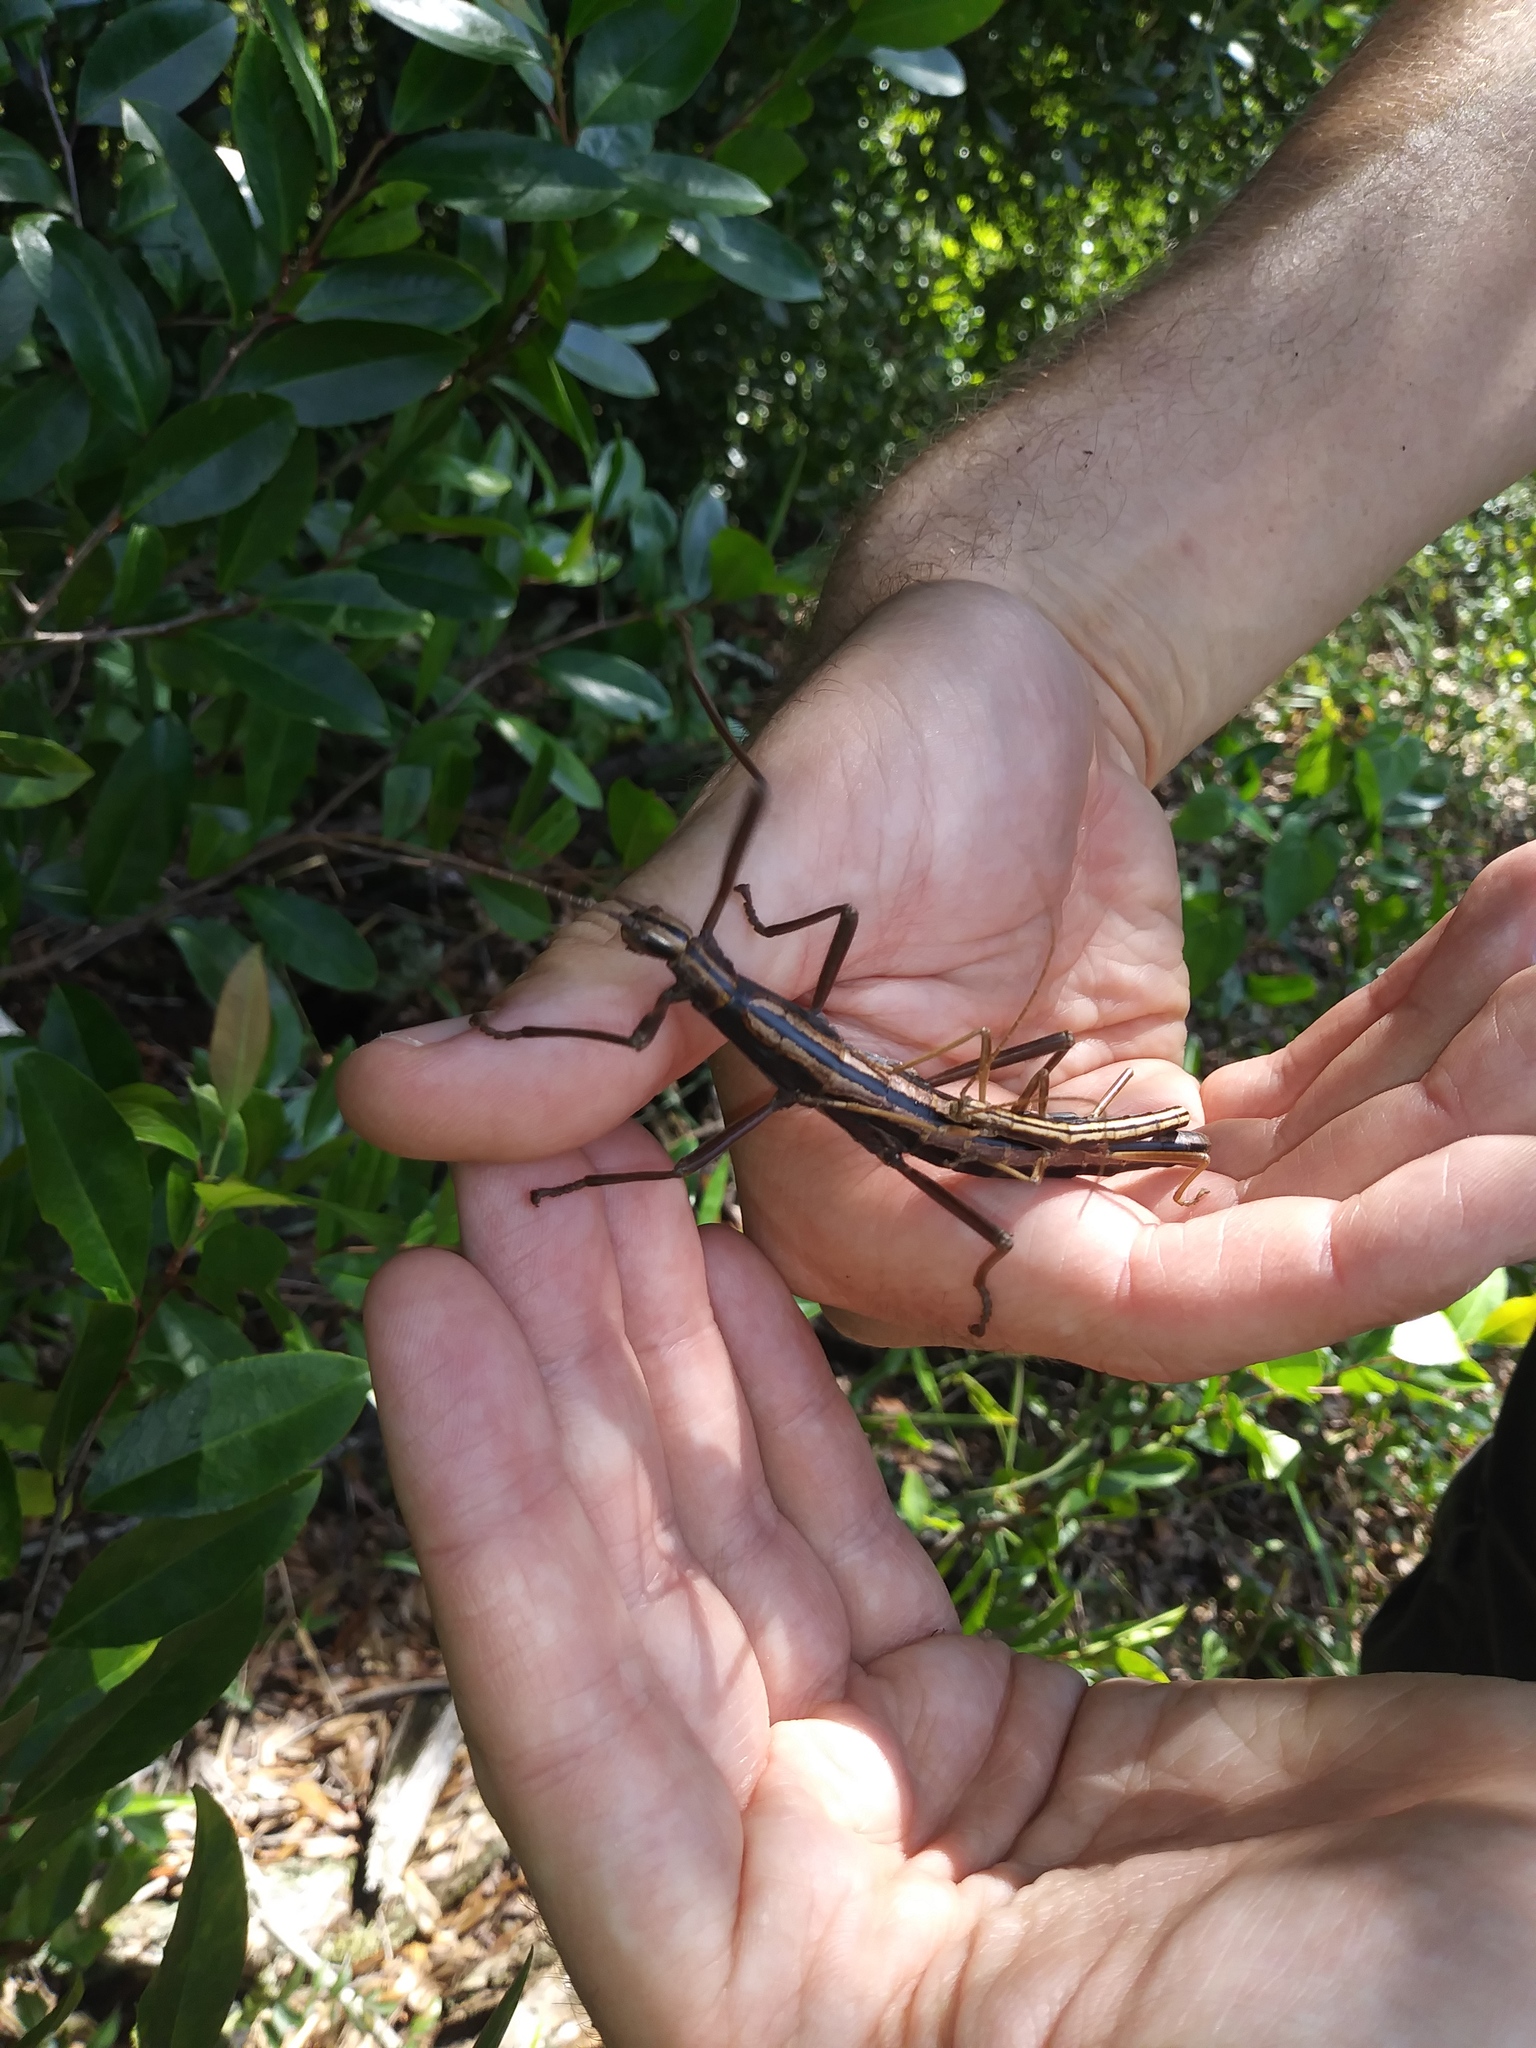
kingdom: Animalia
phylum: Arthropoda
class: Insecta
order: Phasmida
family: Pseudophasmatidae
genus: Anisomorpha
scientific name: Anisomorpha buprestoides
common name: Florida stick insect
